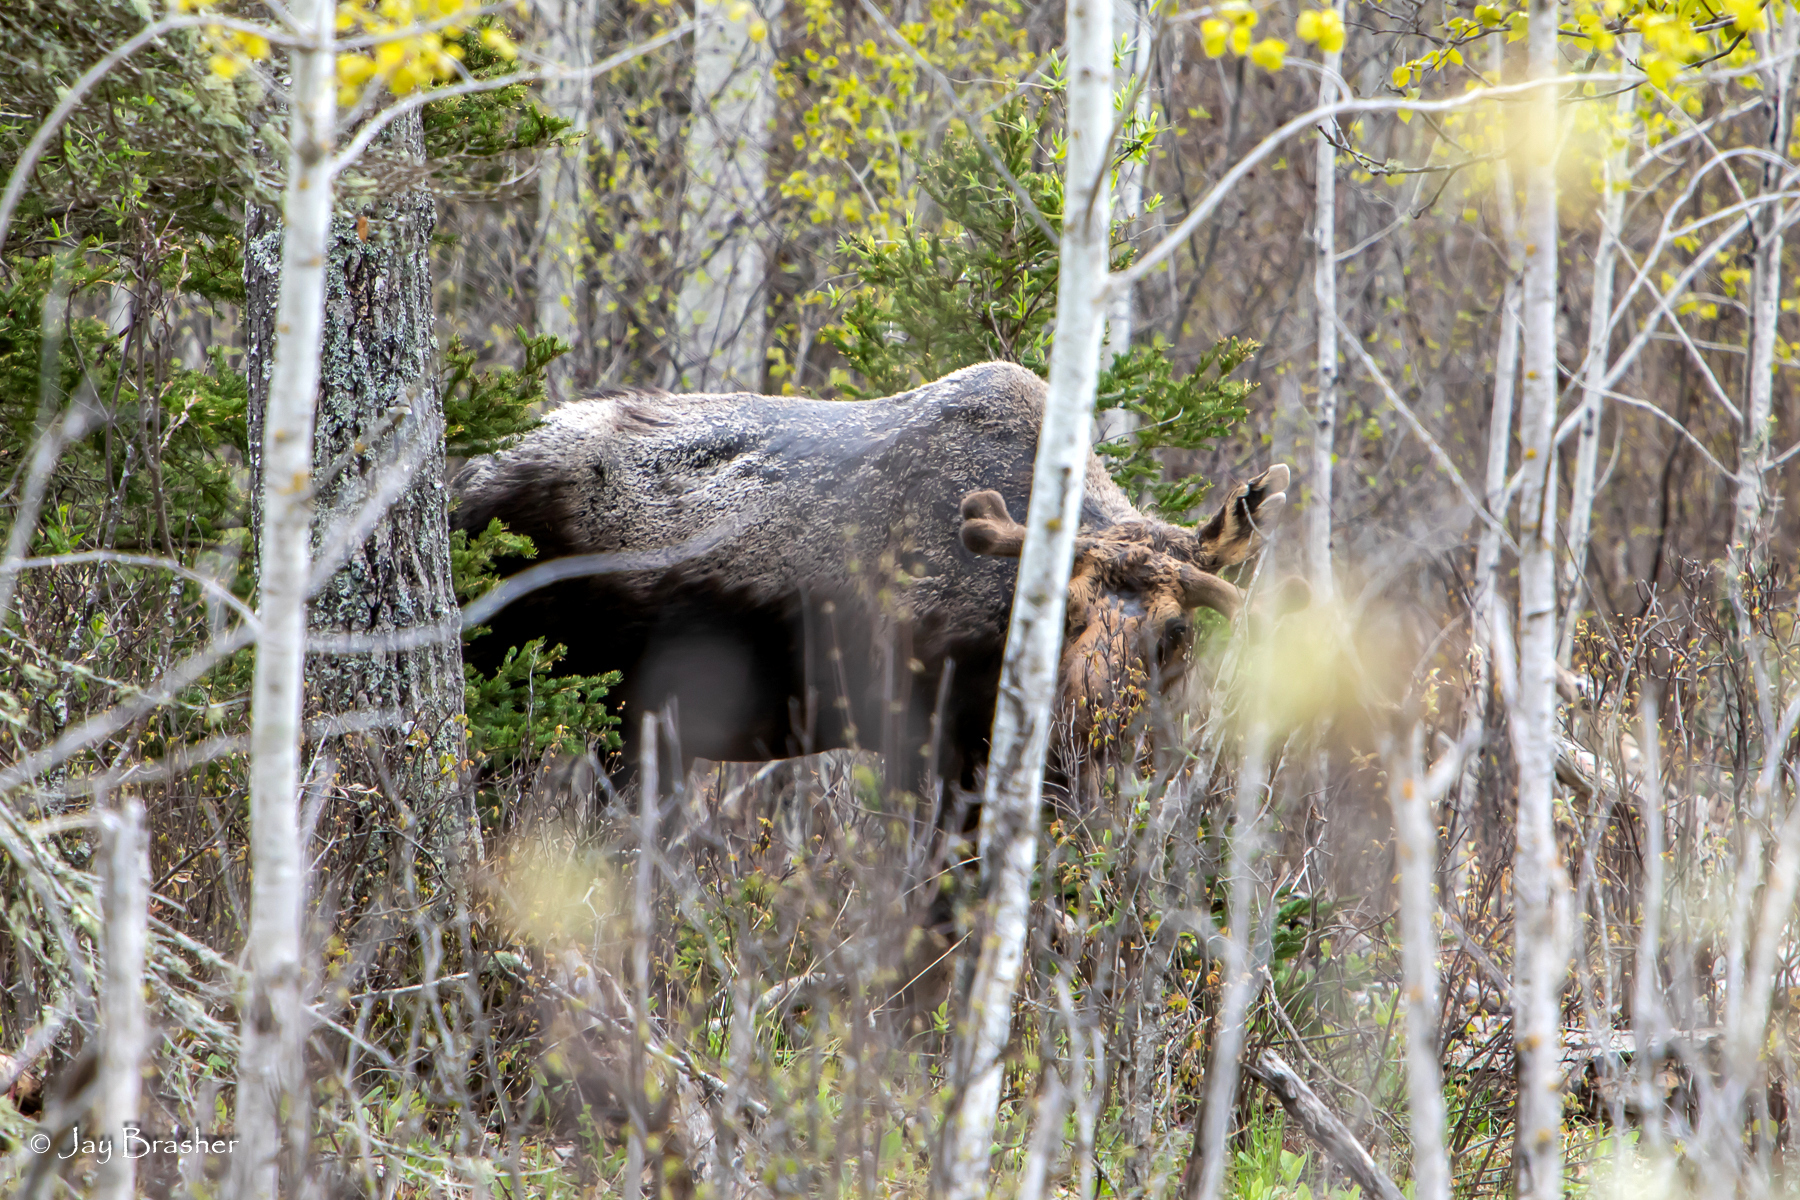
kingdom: Animalia
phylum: Chordata
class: Mammalia
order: Artiodactyla
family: Cervidae
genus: Alces
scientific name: Alces americanus
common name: Moose
